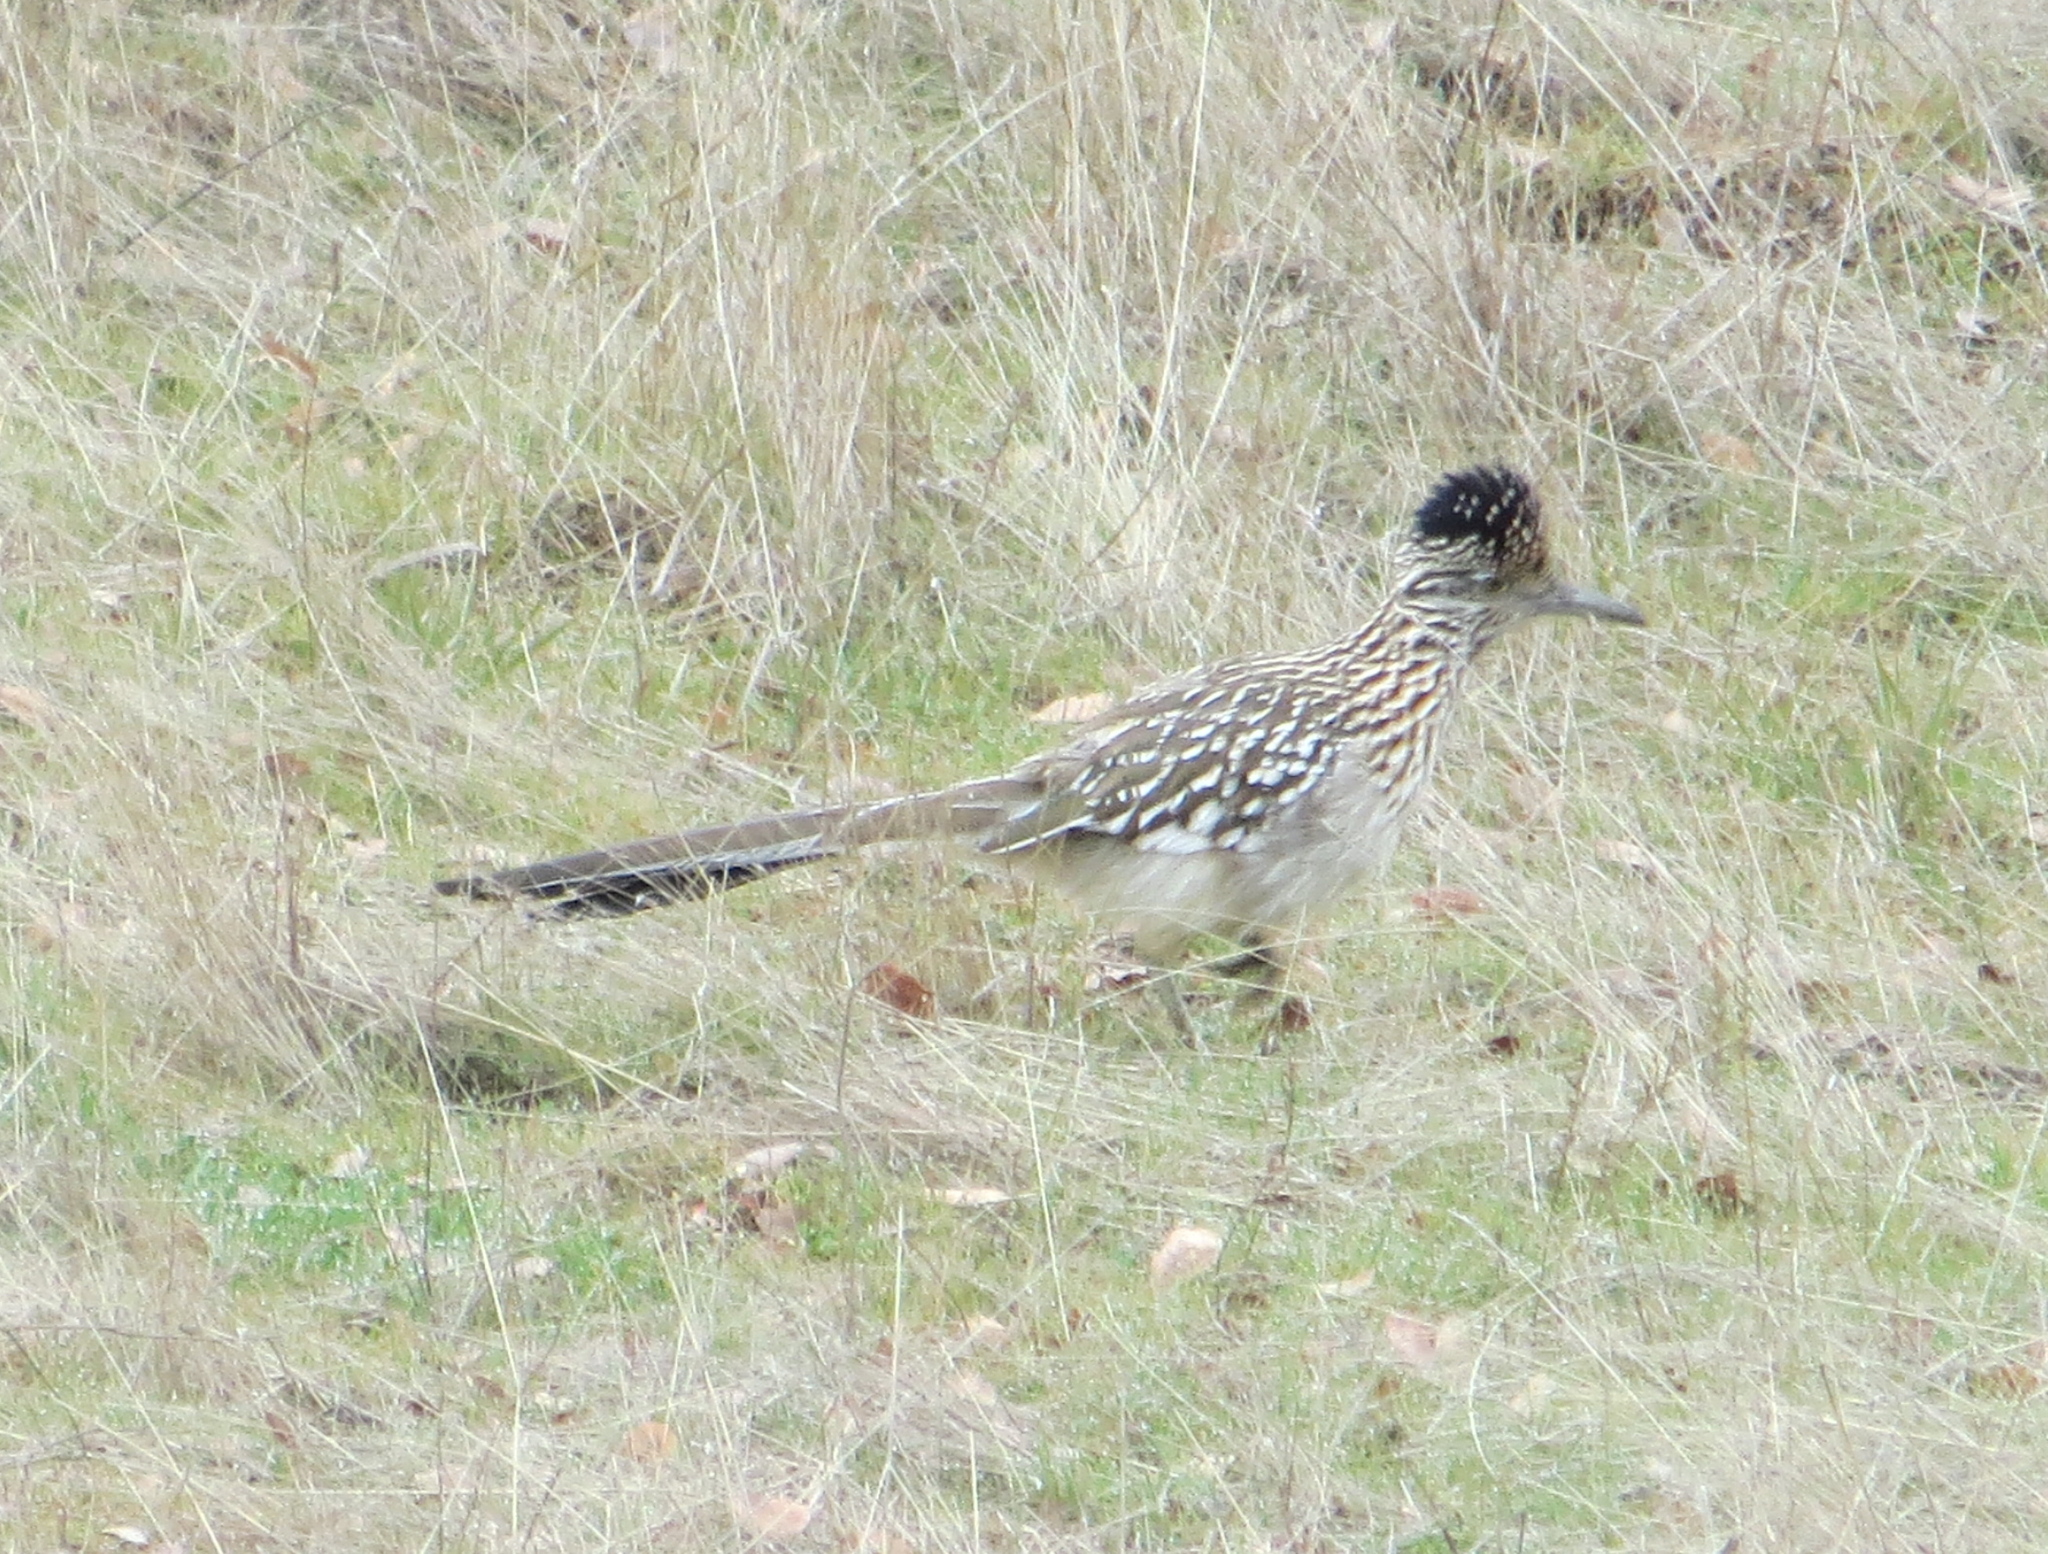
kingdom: Animalia
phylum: Chordata
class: Aves
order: Cuculiformes
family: Cuculidae
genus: Geococcyx
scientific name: Geococcyx californianus
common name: Greater roadrunner
